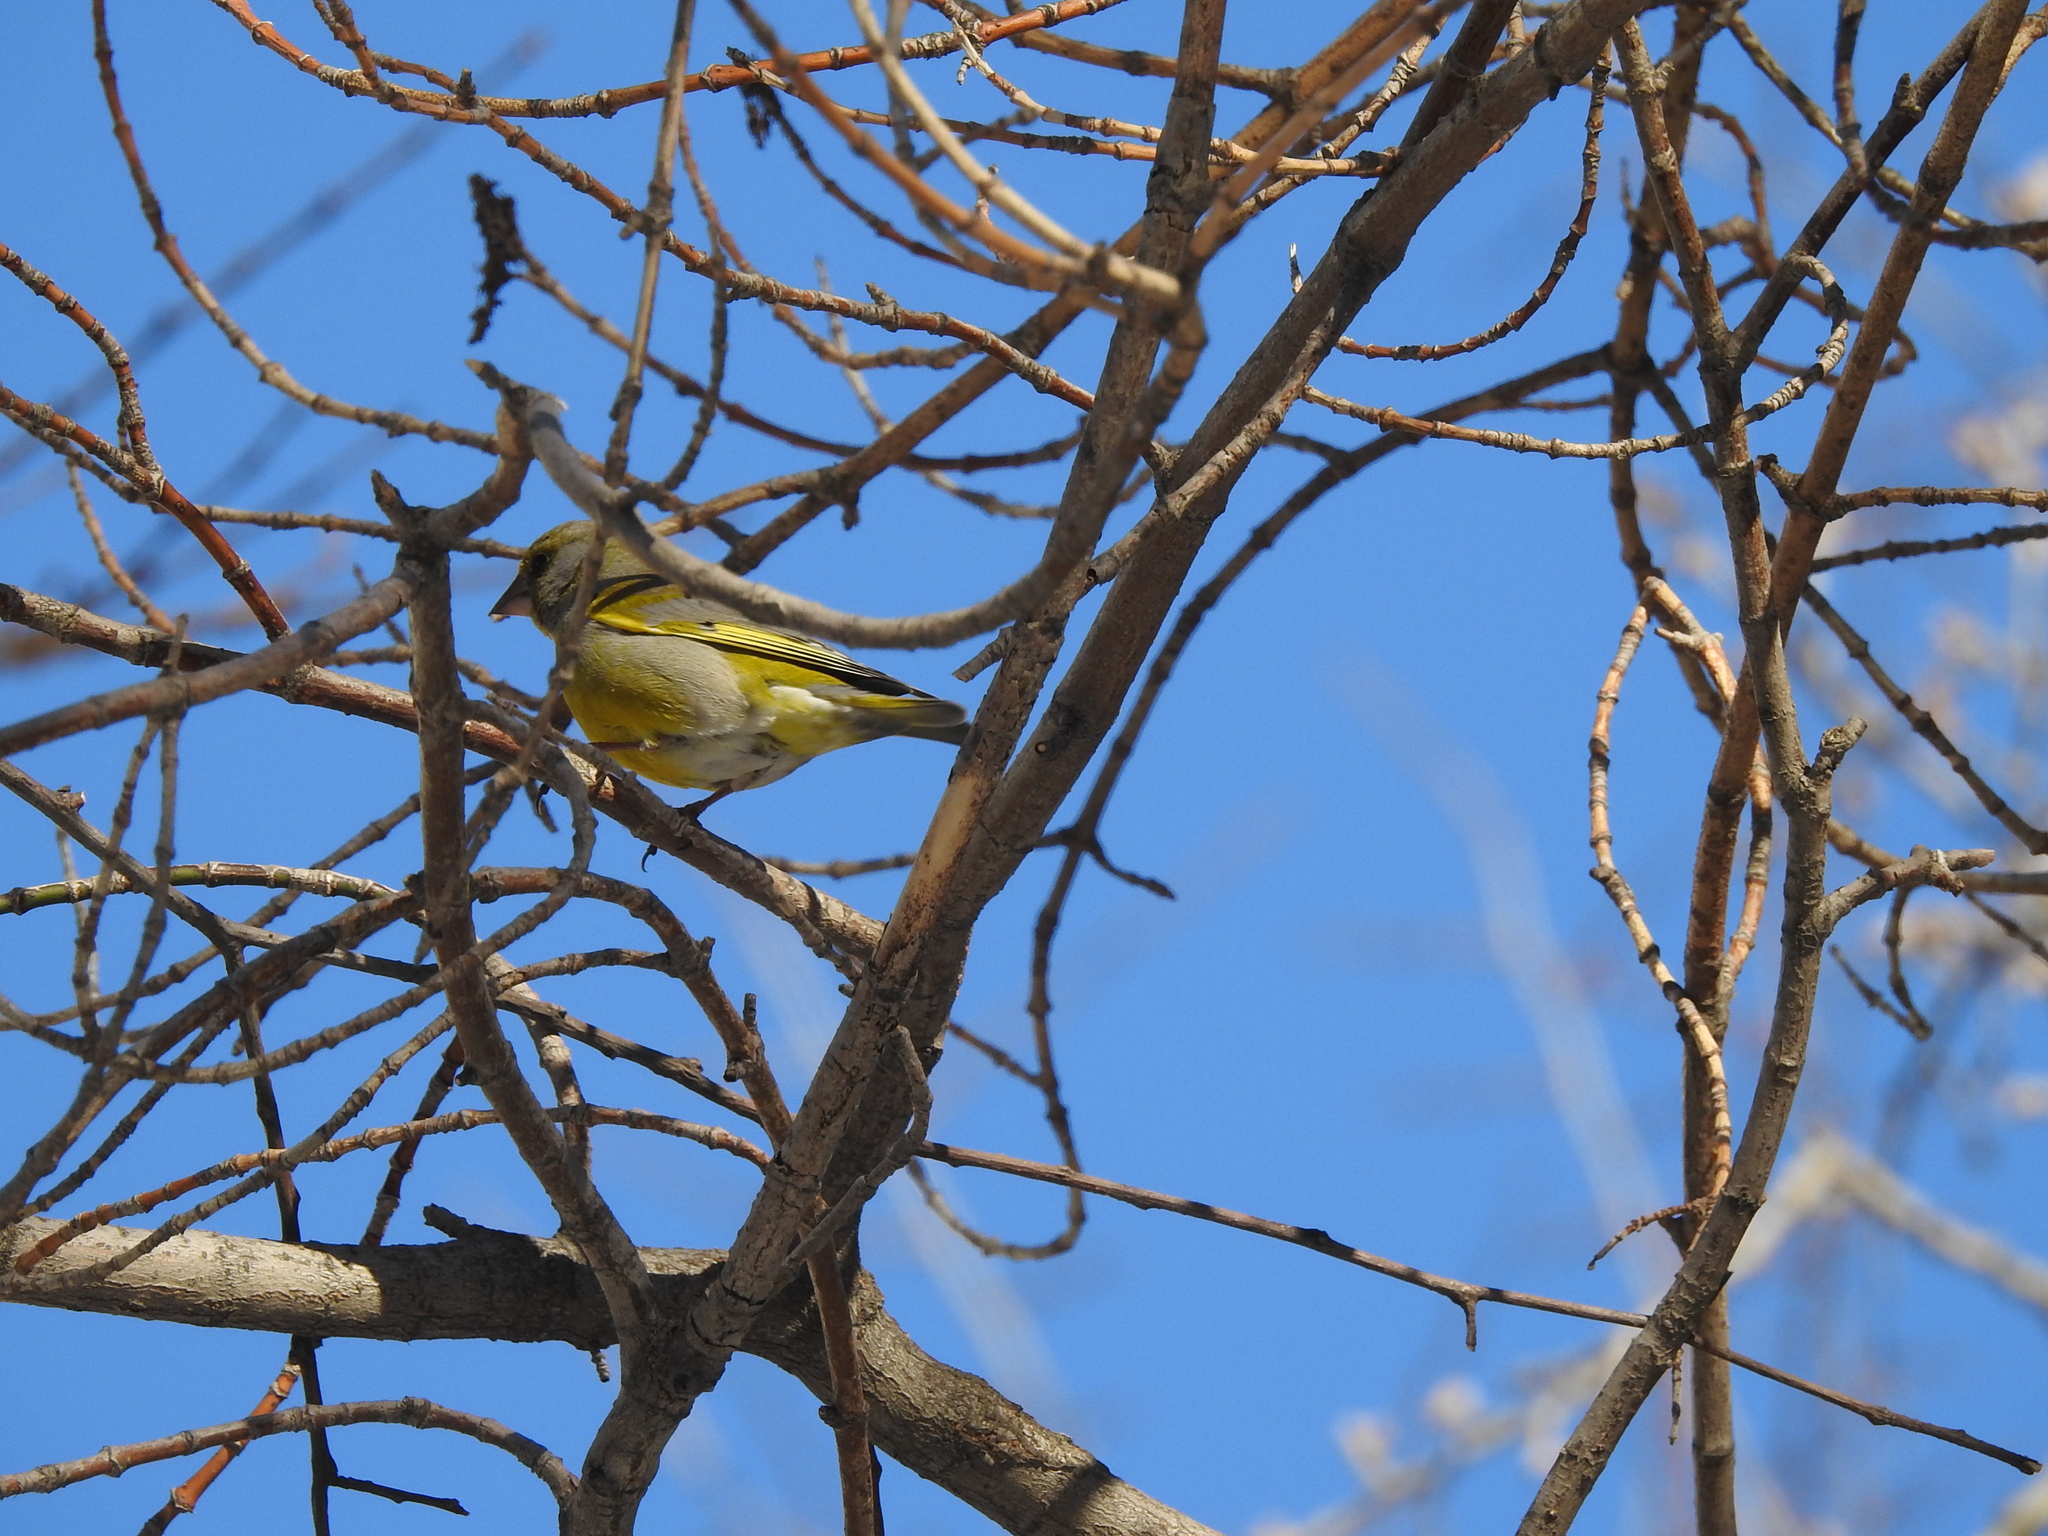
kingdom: Plantae
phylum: Tracheophyta
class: Liliopsida
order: Poales
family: Poaceae
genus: Chloris
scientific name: Chloris chloris
